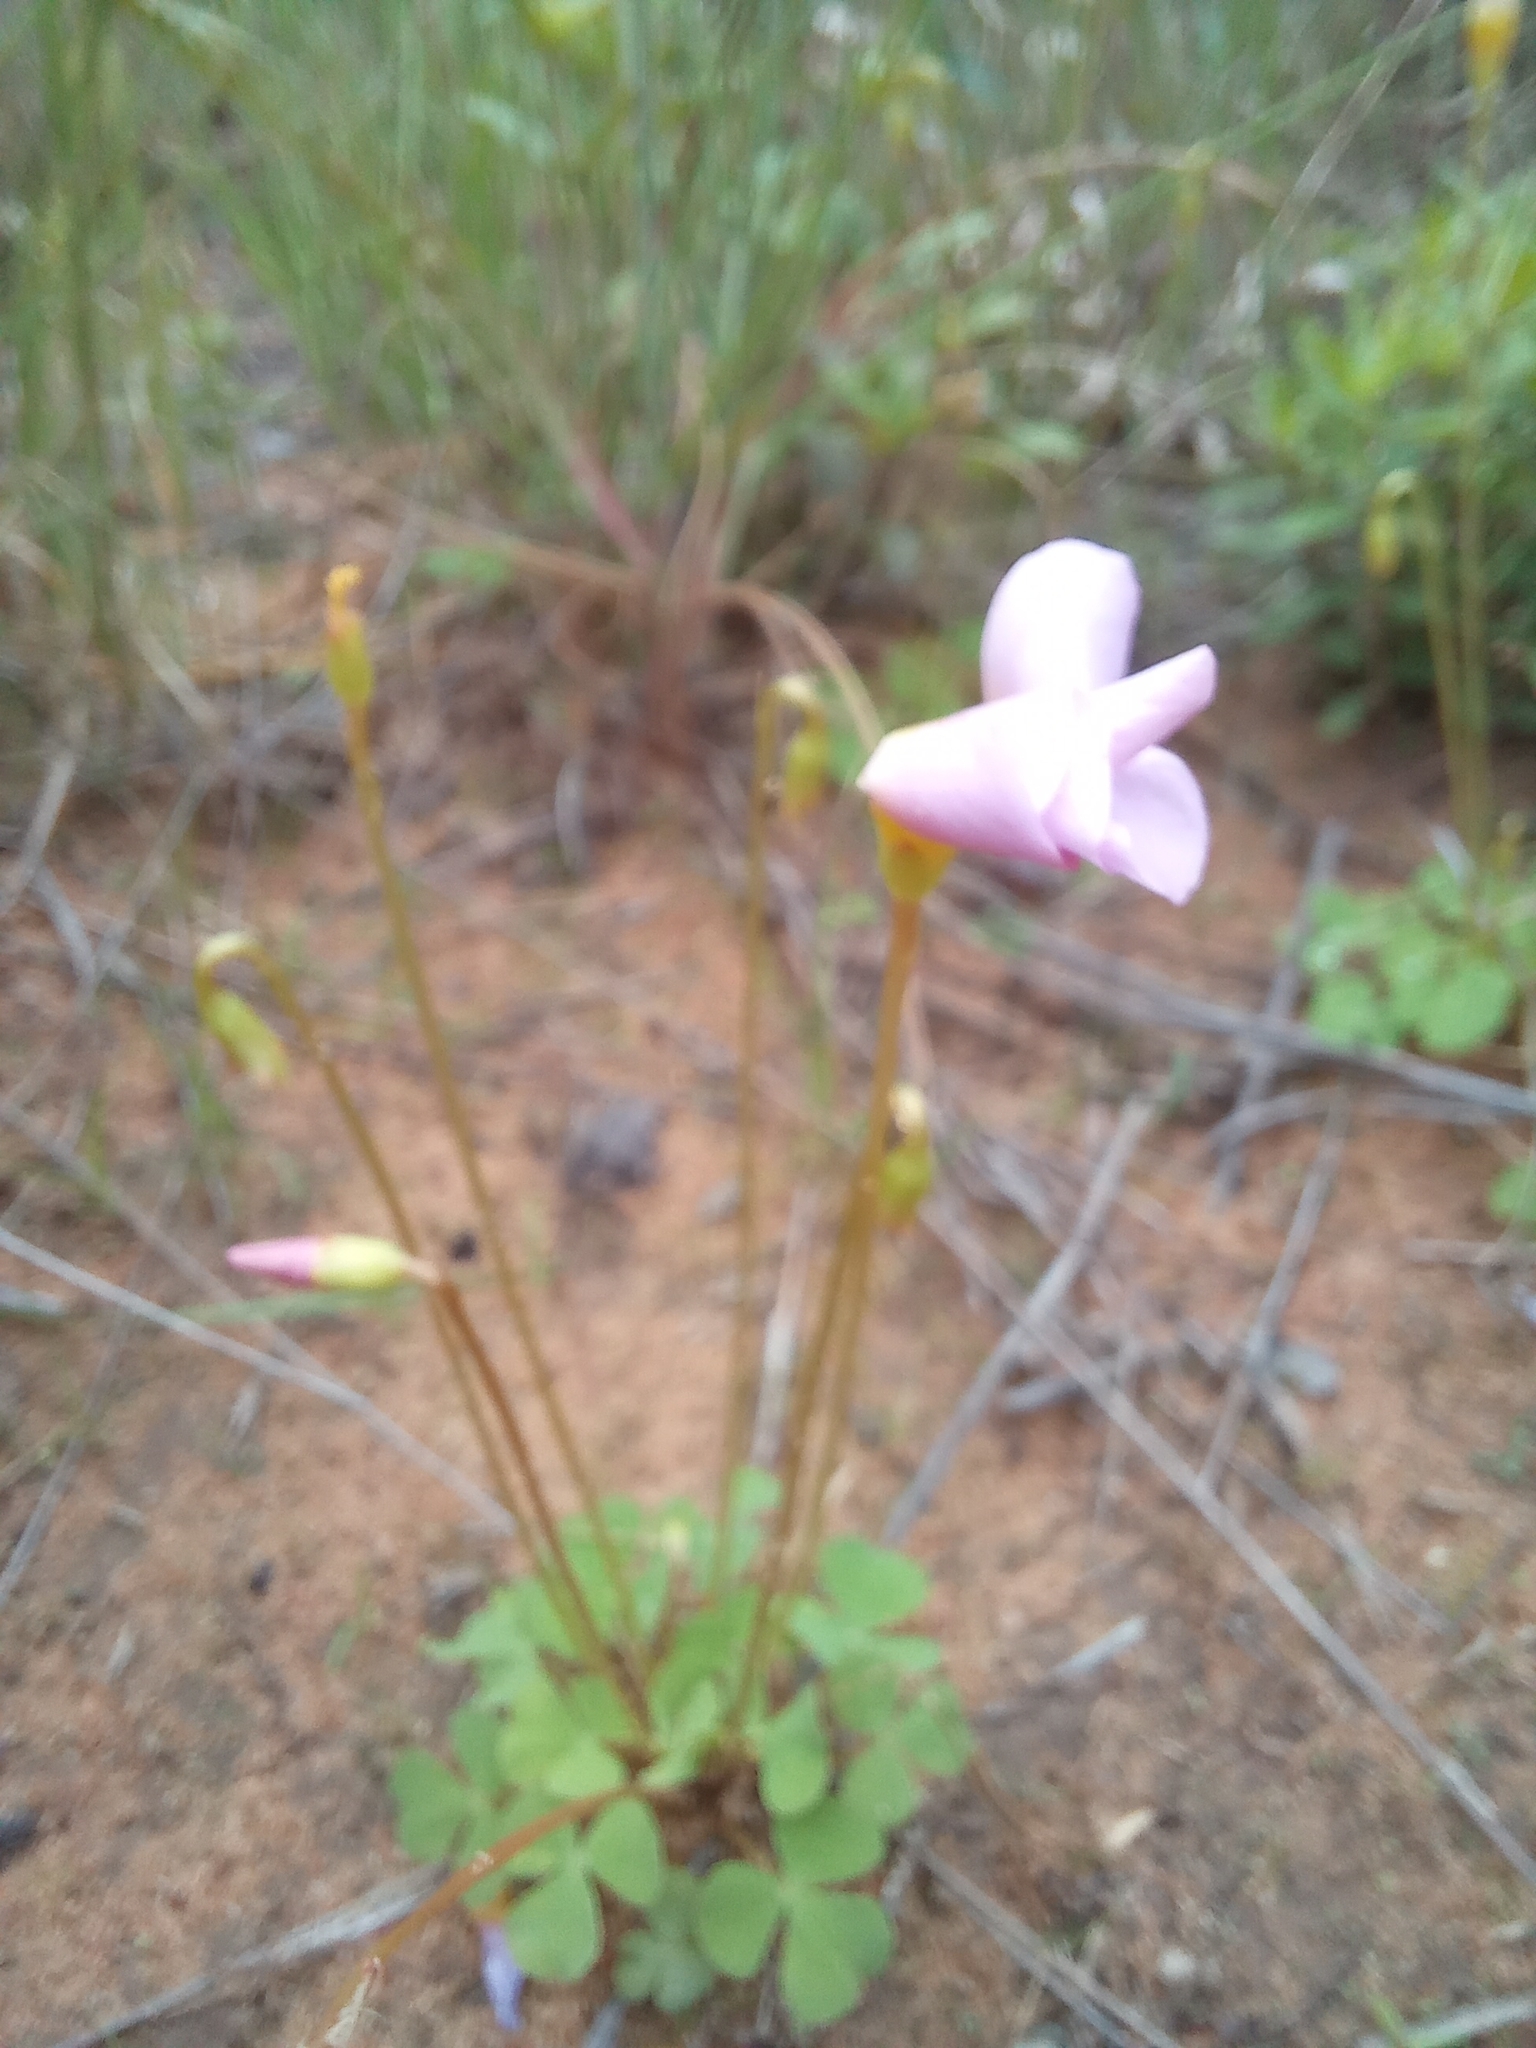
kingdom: Plantae
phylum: Tracheophyta
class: Magnoliopsida
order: Oxalidales
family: Oxalidaceae
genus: Oxalis
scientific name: Oxalis obliquifolia
